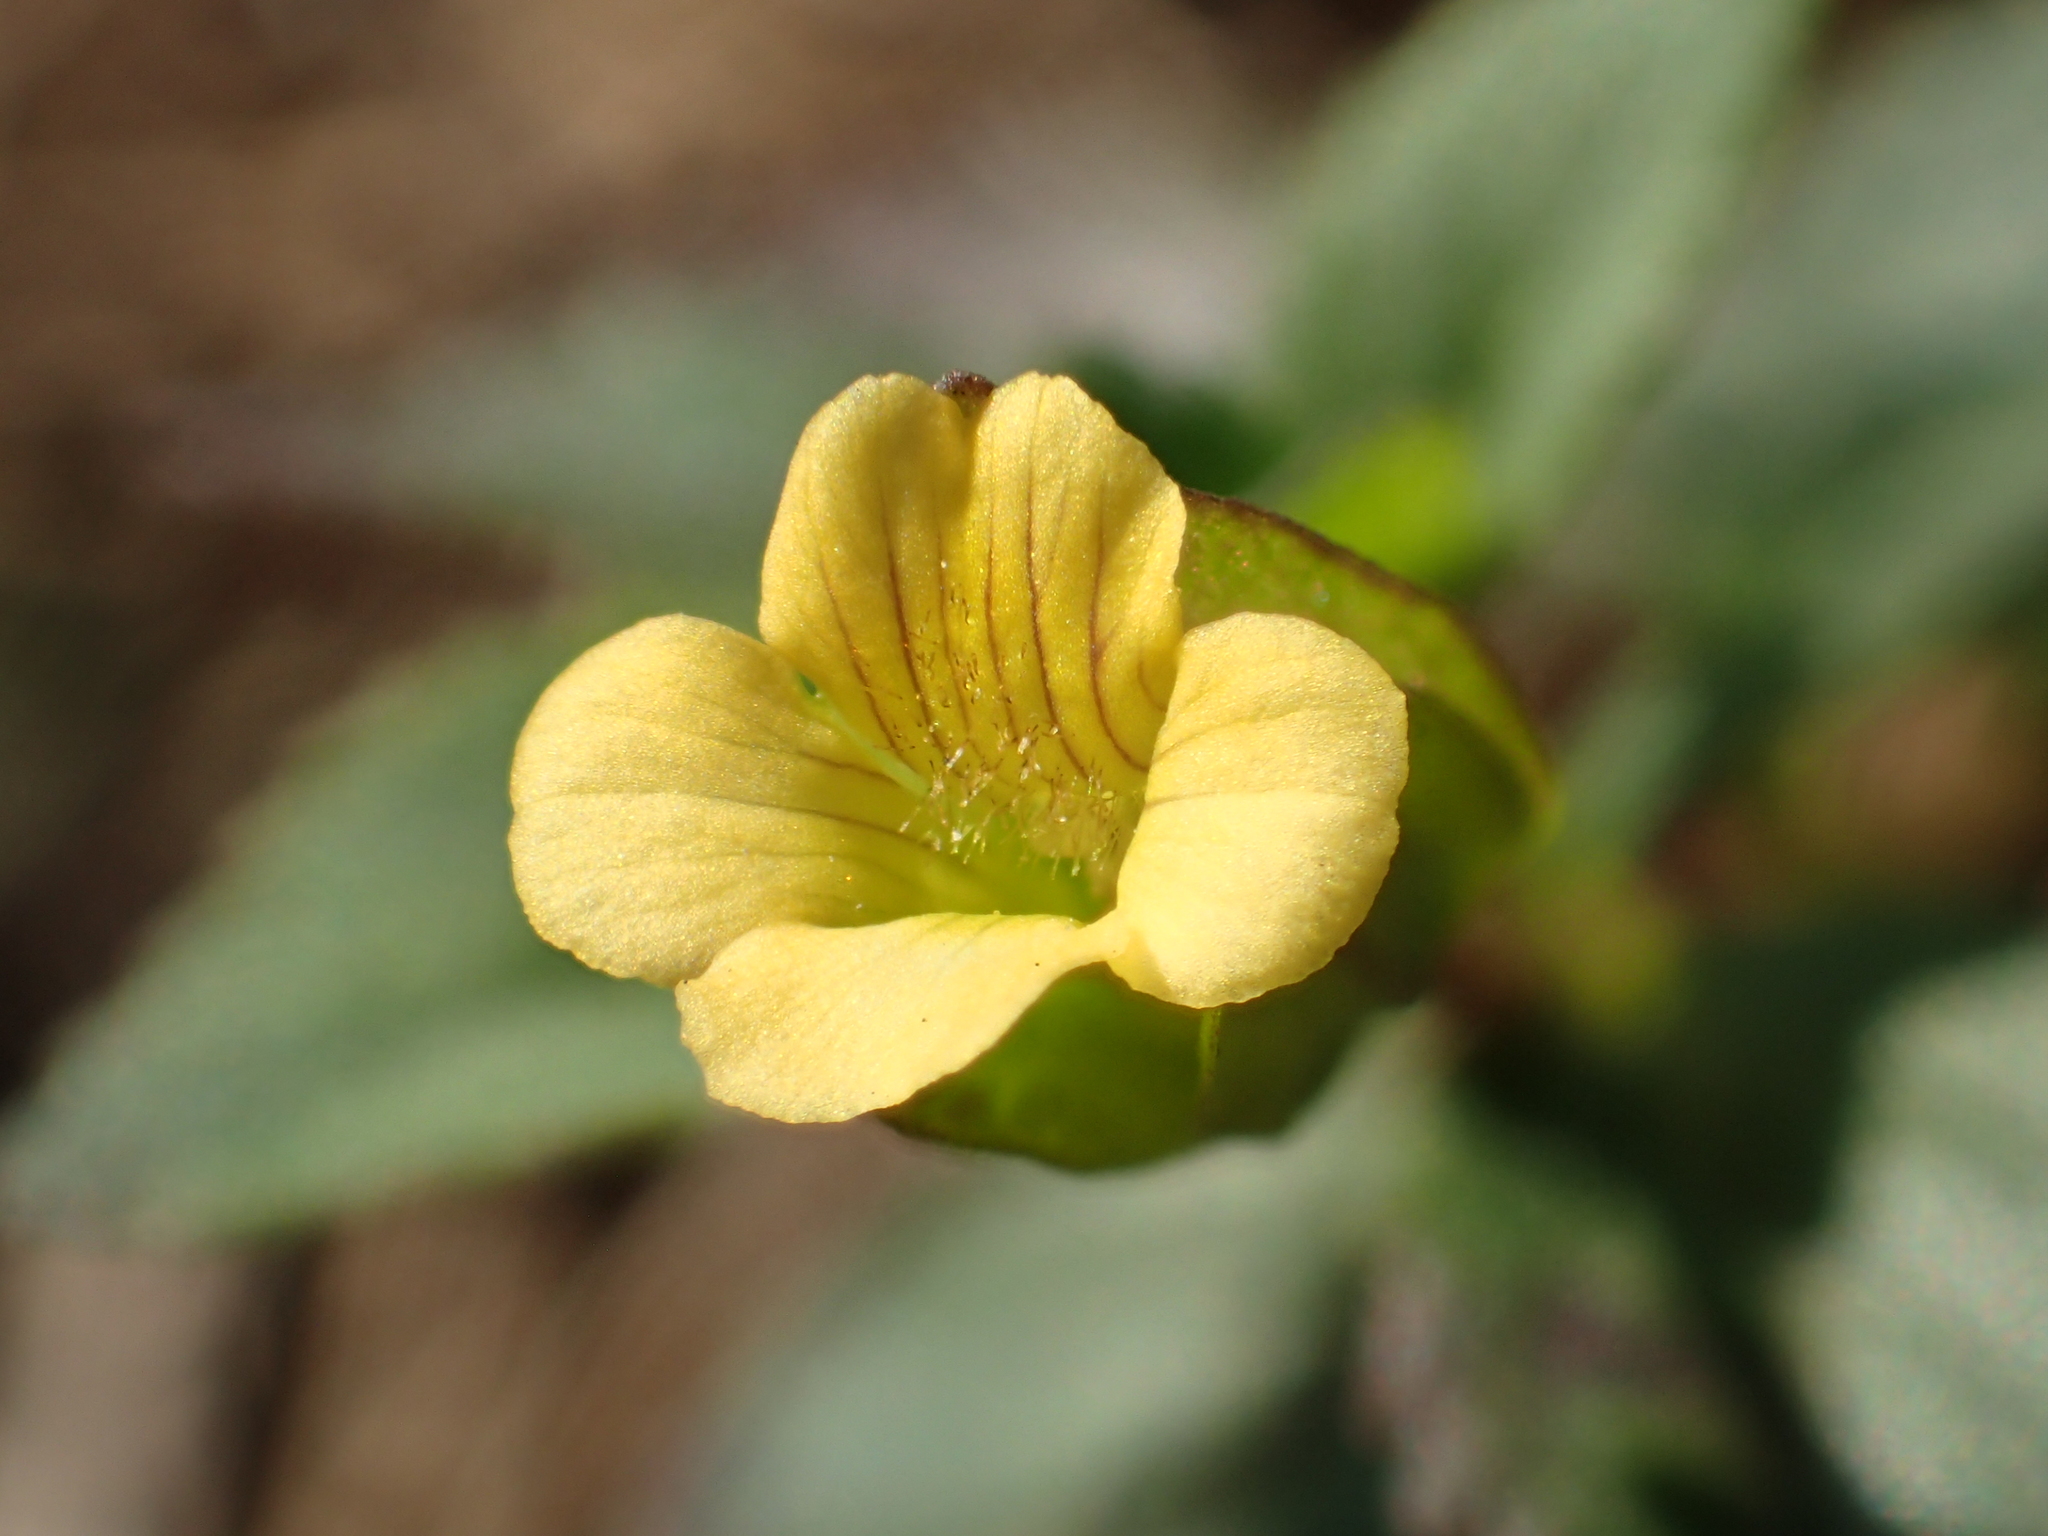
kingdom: Plantae
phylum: Tracheophyta
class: Magnoliopsida
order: Lamiales
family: Plantaginaceae
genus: Mecardonia
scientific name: Mecardonia procumbens
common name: Baby jump-up
